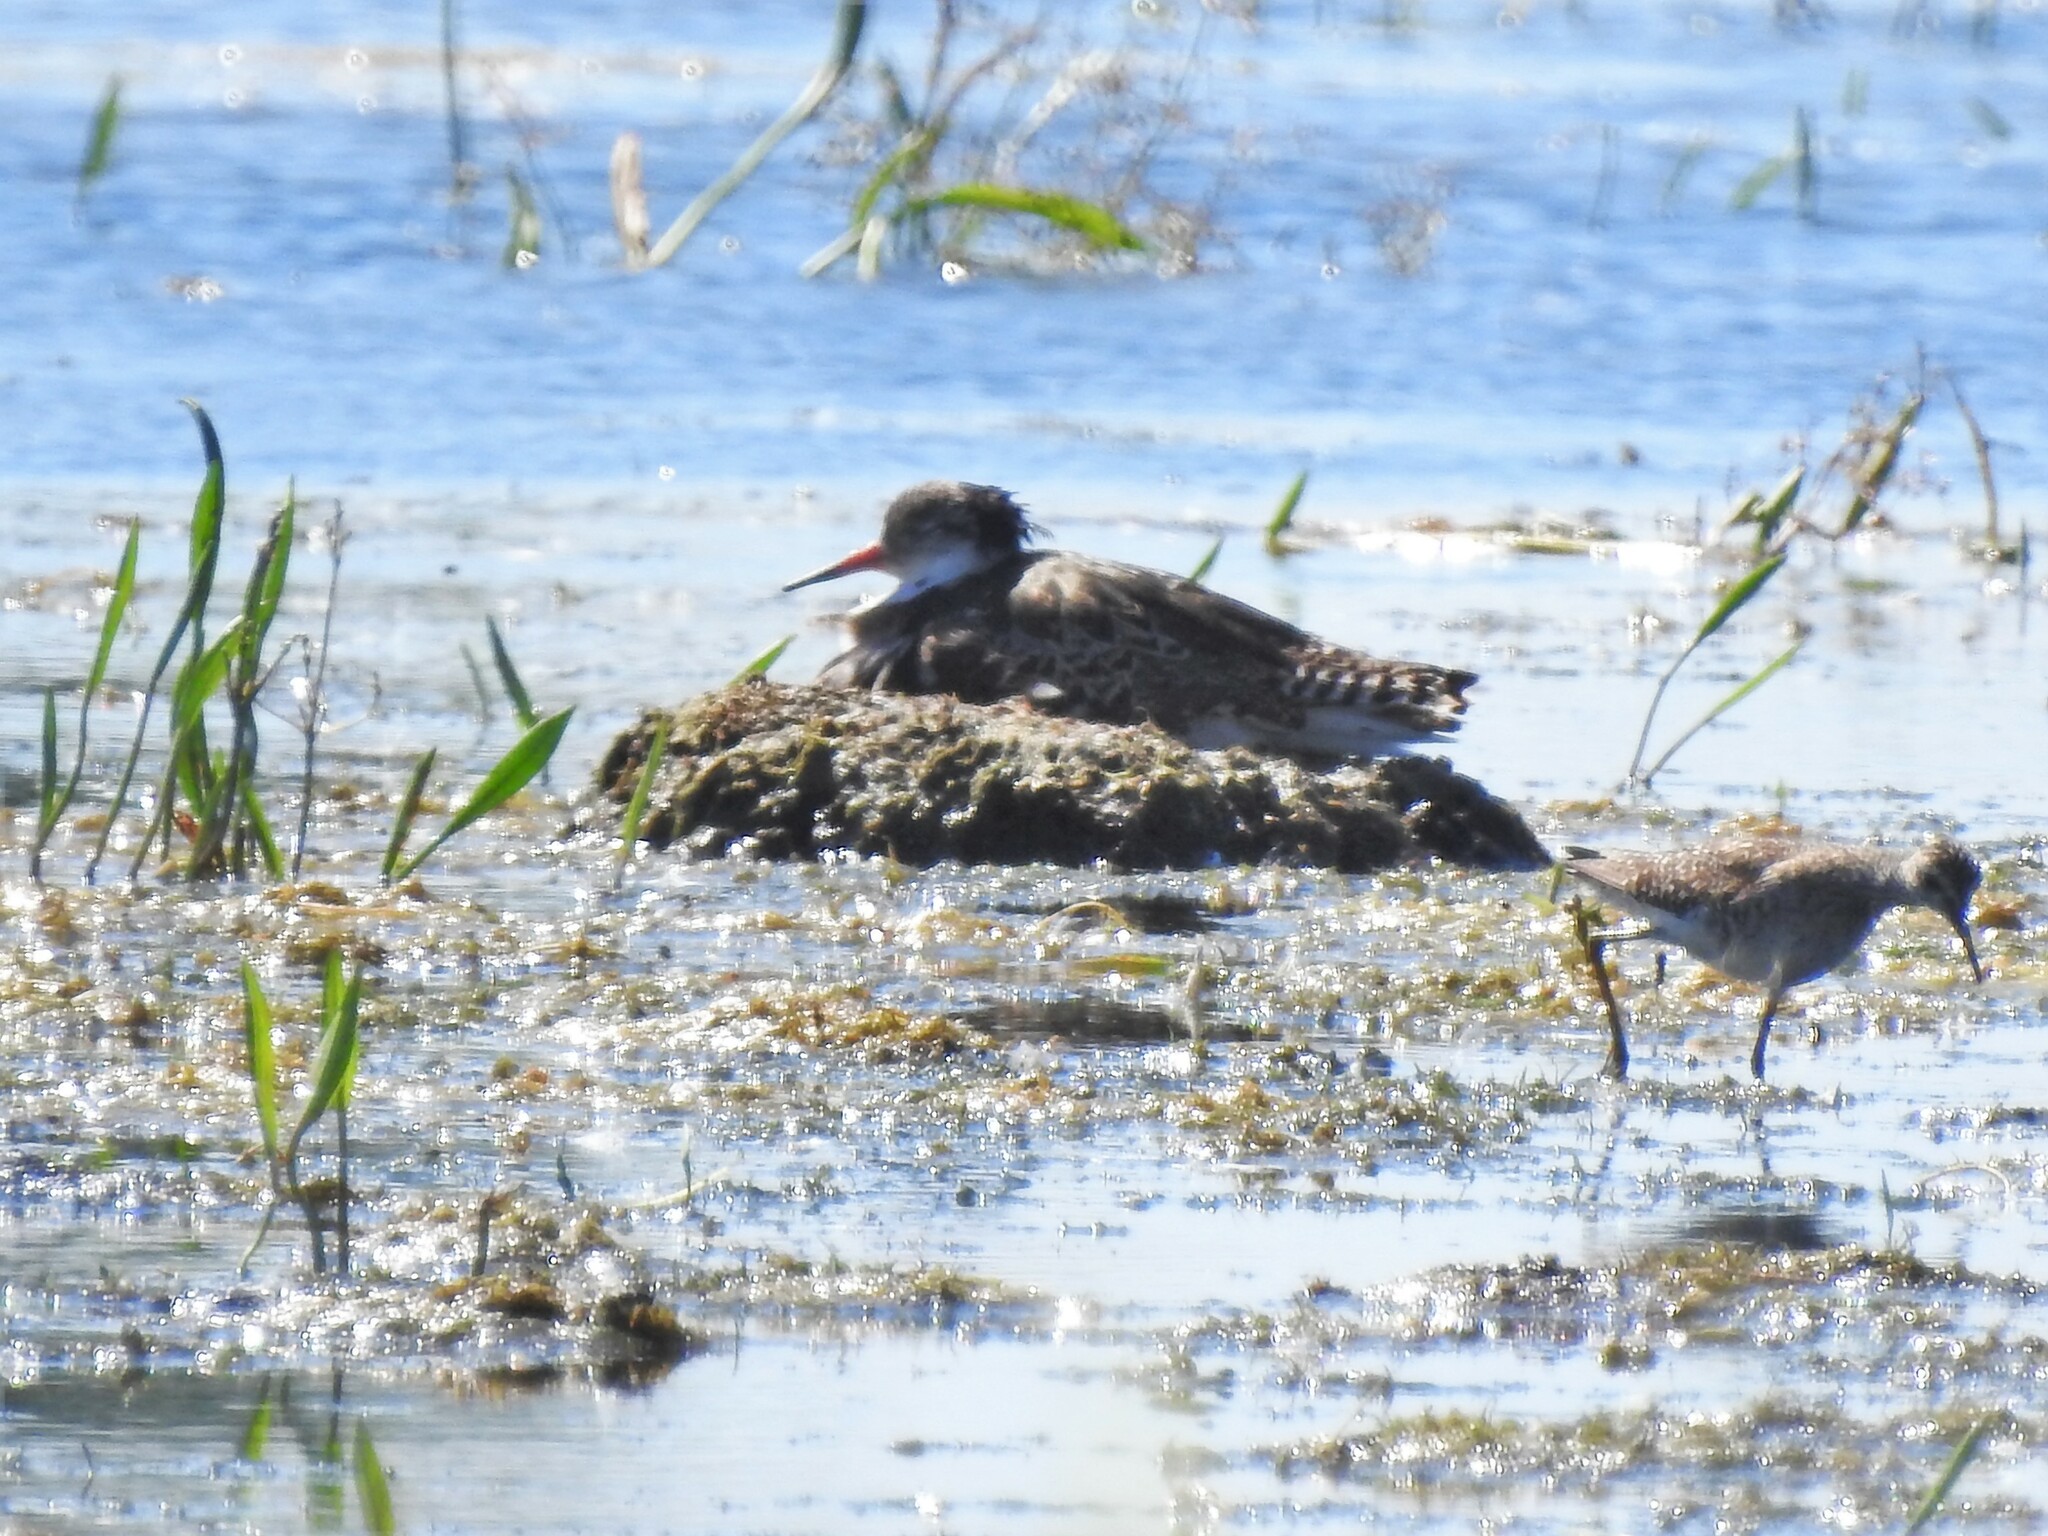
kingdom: Animalia
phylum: Chordata
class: Aves
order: Charadriiformes
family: Scolopacidae
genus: Calidris
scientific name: Calidris pugnax
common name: Ruff
